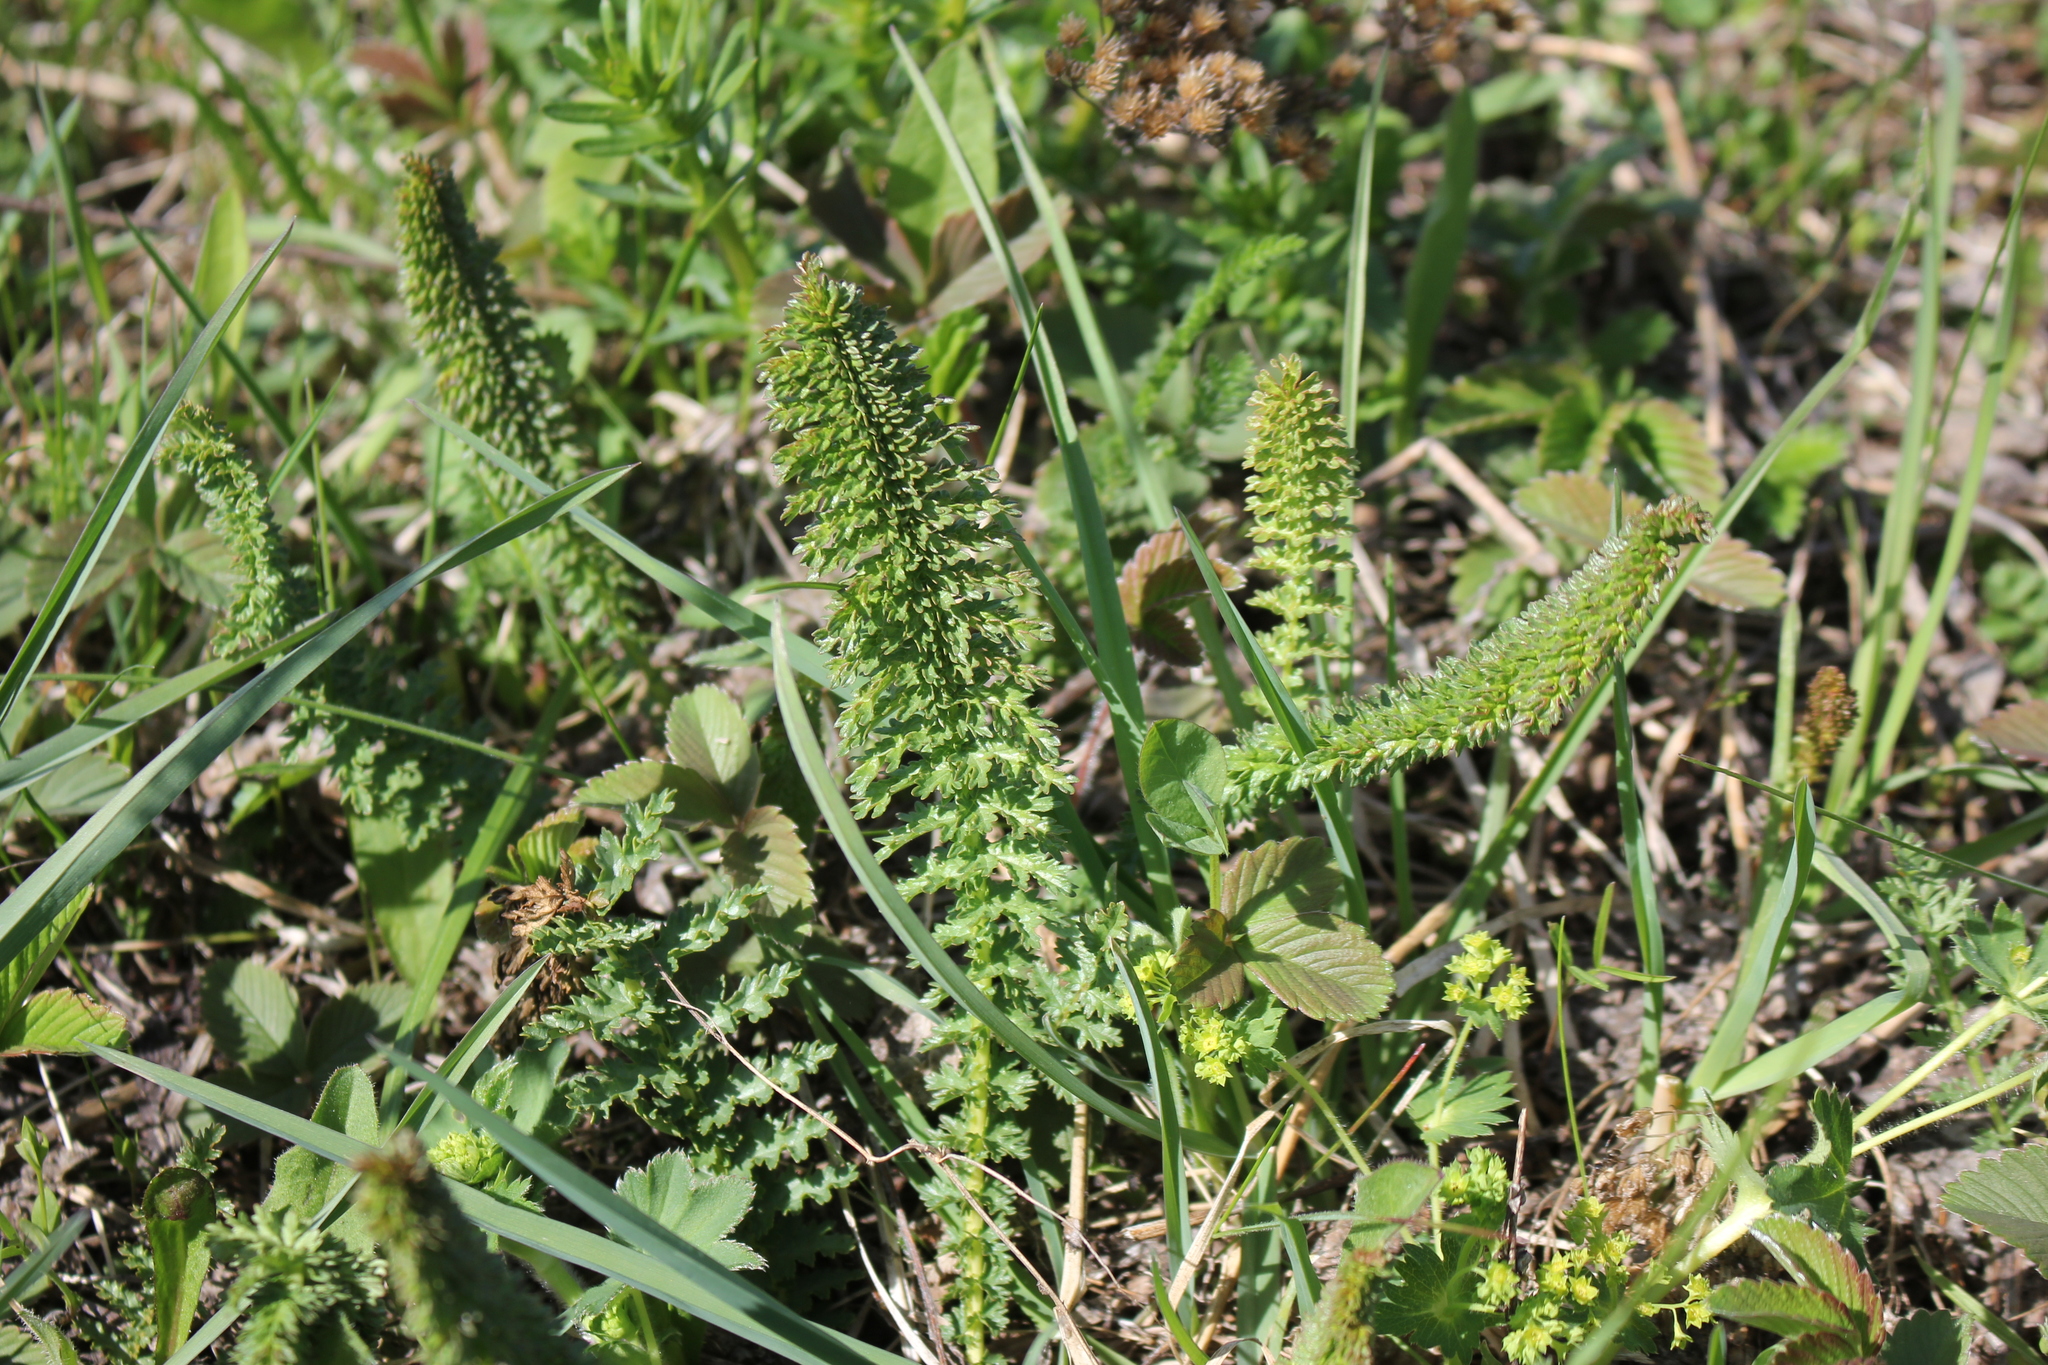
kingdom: Plantae
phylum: Tracheophyta
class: Magnoliopsida
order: Rosales
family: Rosaceae
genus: Filipendula
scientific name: Filipendula vulgaris
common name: Dropwort
